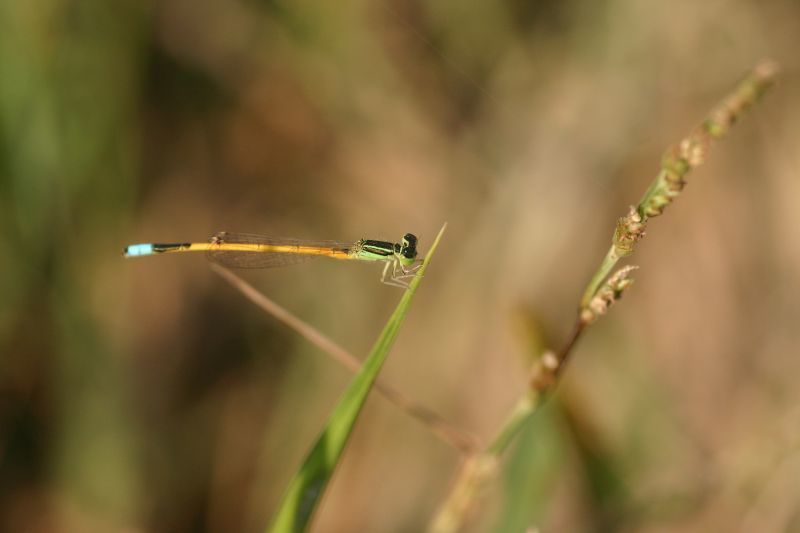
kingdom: Animalia
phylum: Arthropoda
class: Insecta
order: Odonata
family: Coenagrionidae
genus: Ischnura
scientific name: Ischnura rubilio
